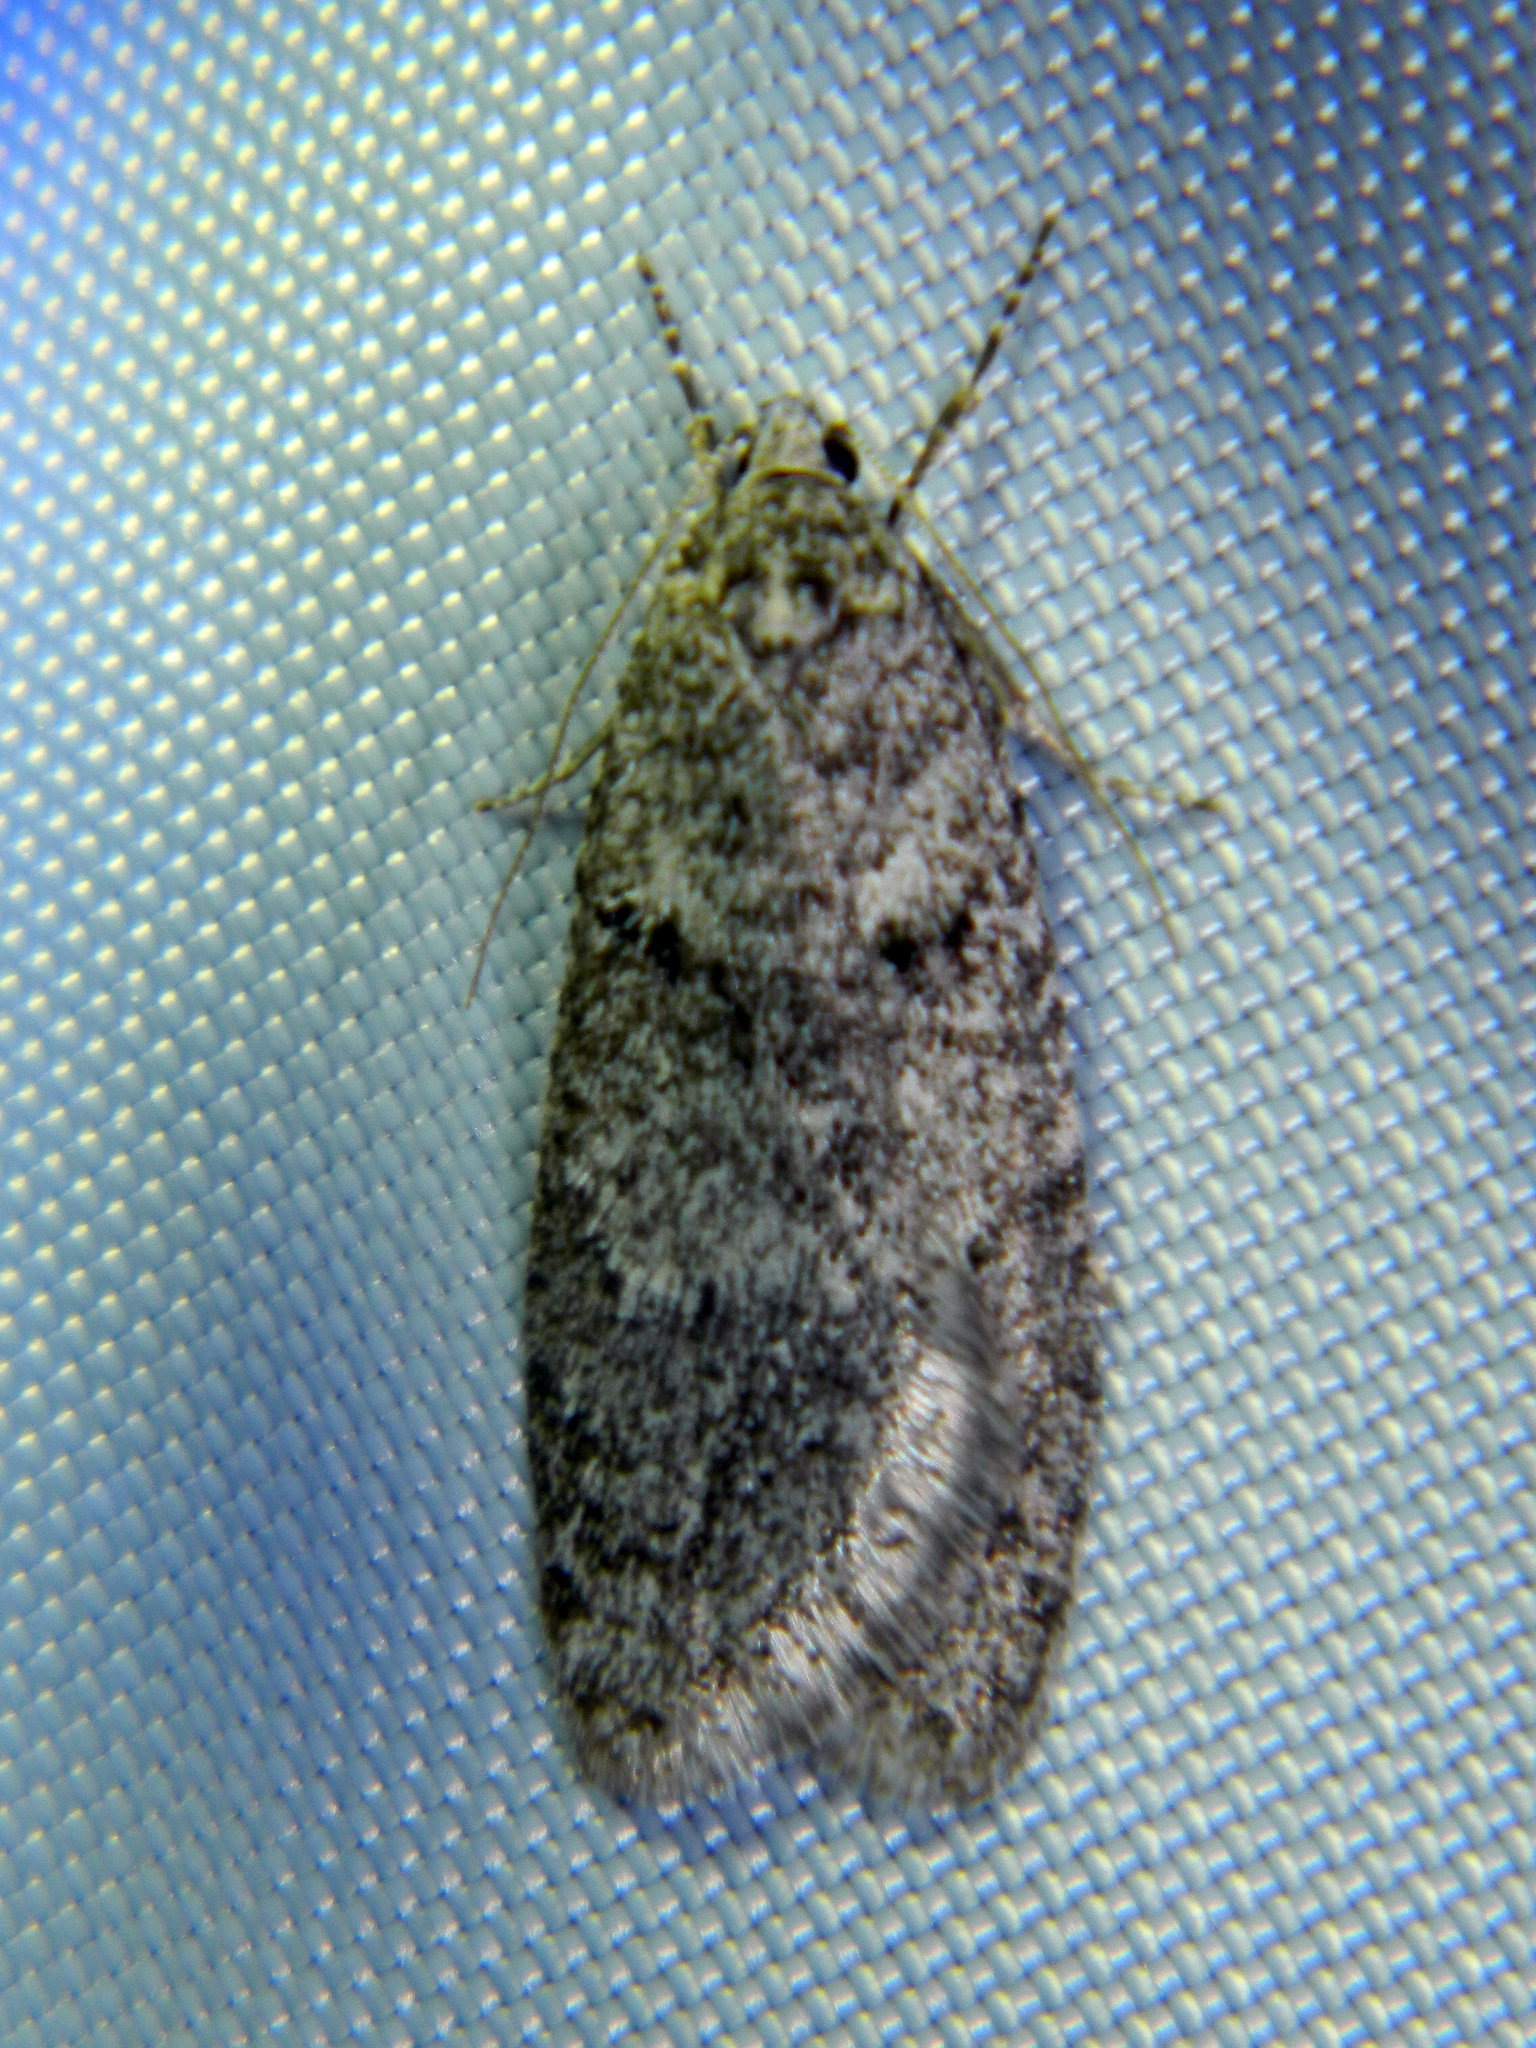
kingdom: Animalia
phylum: Arthropoda
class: Insecta
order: Lepidoptera
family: Depressariidae
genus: Semioscopis
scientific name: Semioscopis inornata
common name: Poplar micromoth
